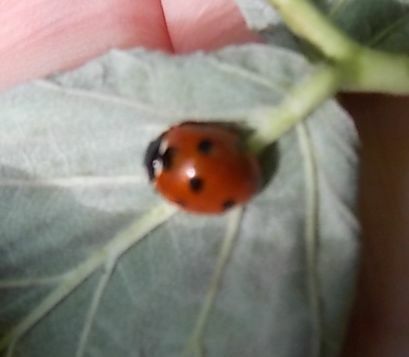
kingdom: Animalia
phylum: Arthropoda
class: Insecta
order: Coleoptera
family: Coccinellidae
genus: Coccinella
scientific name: Coccinella septempunctata
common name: Sevenspotted lady beetle
